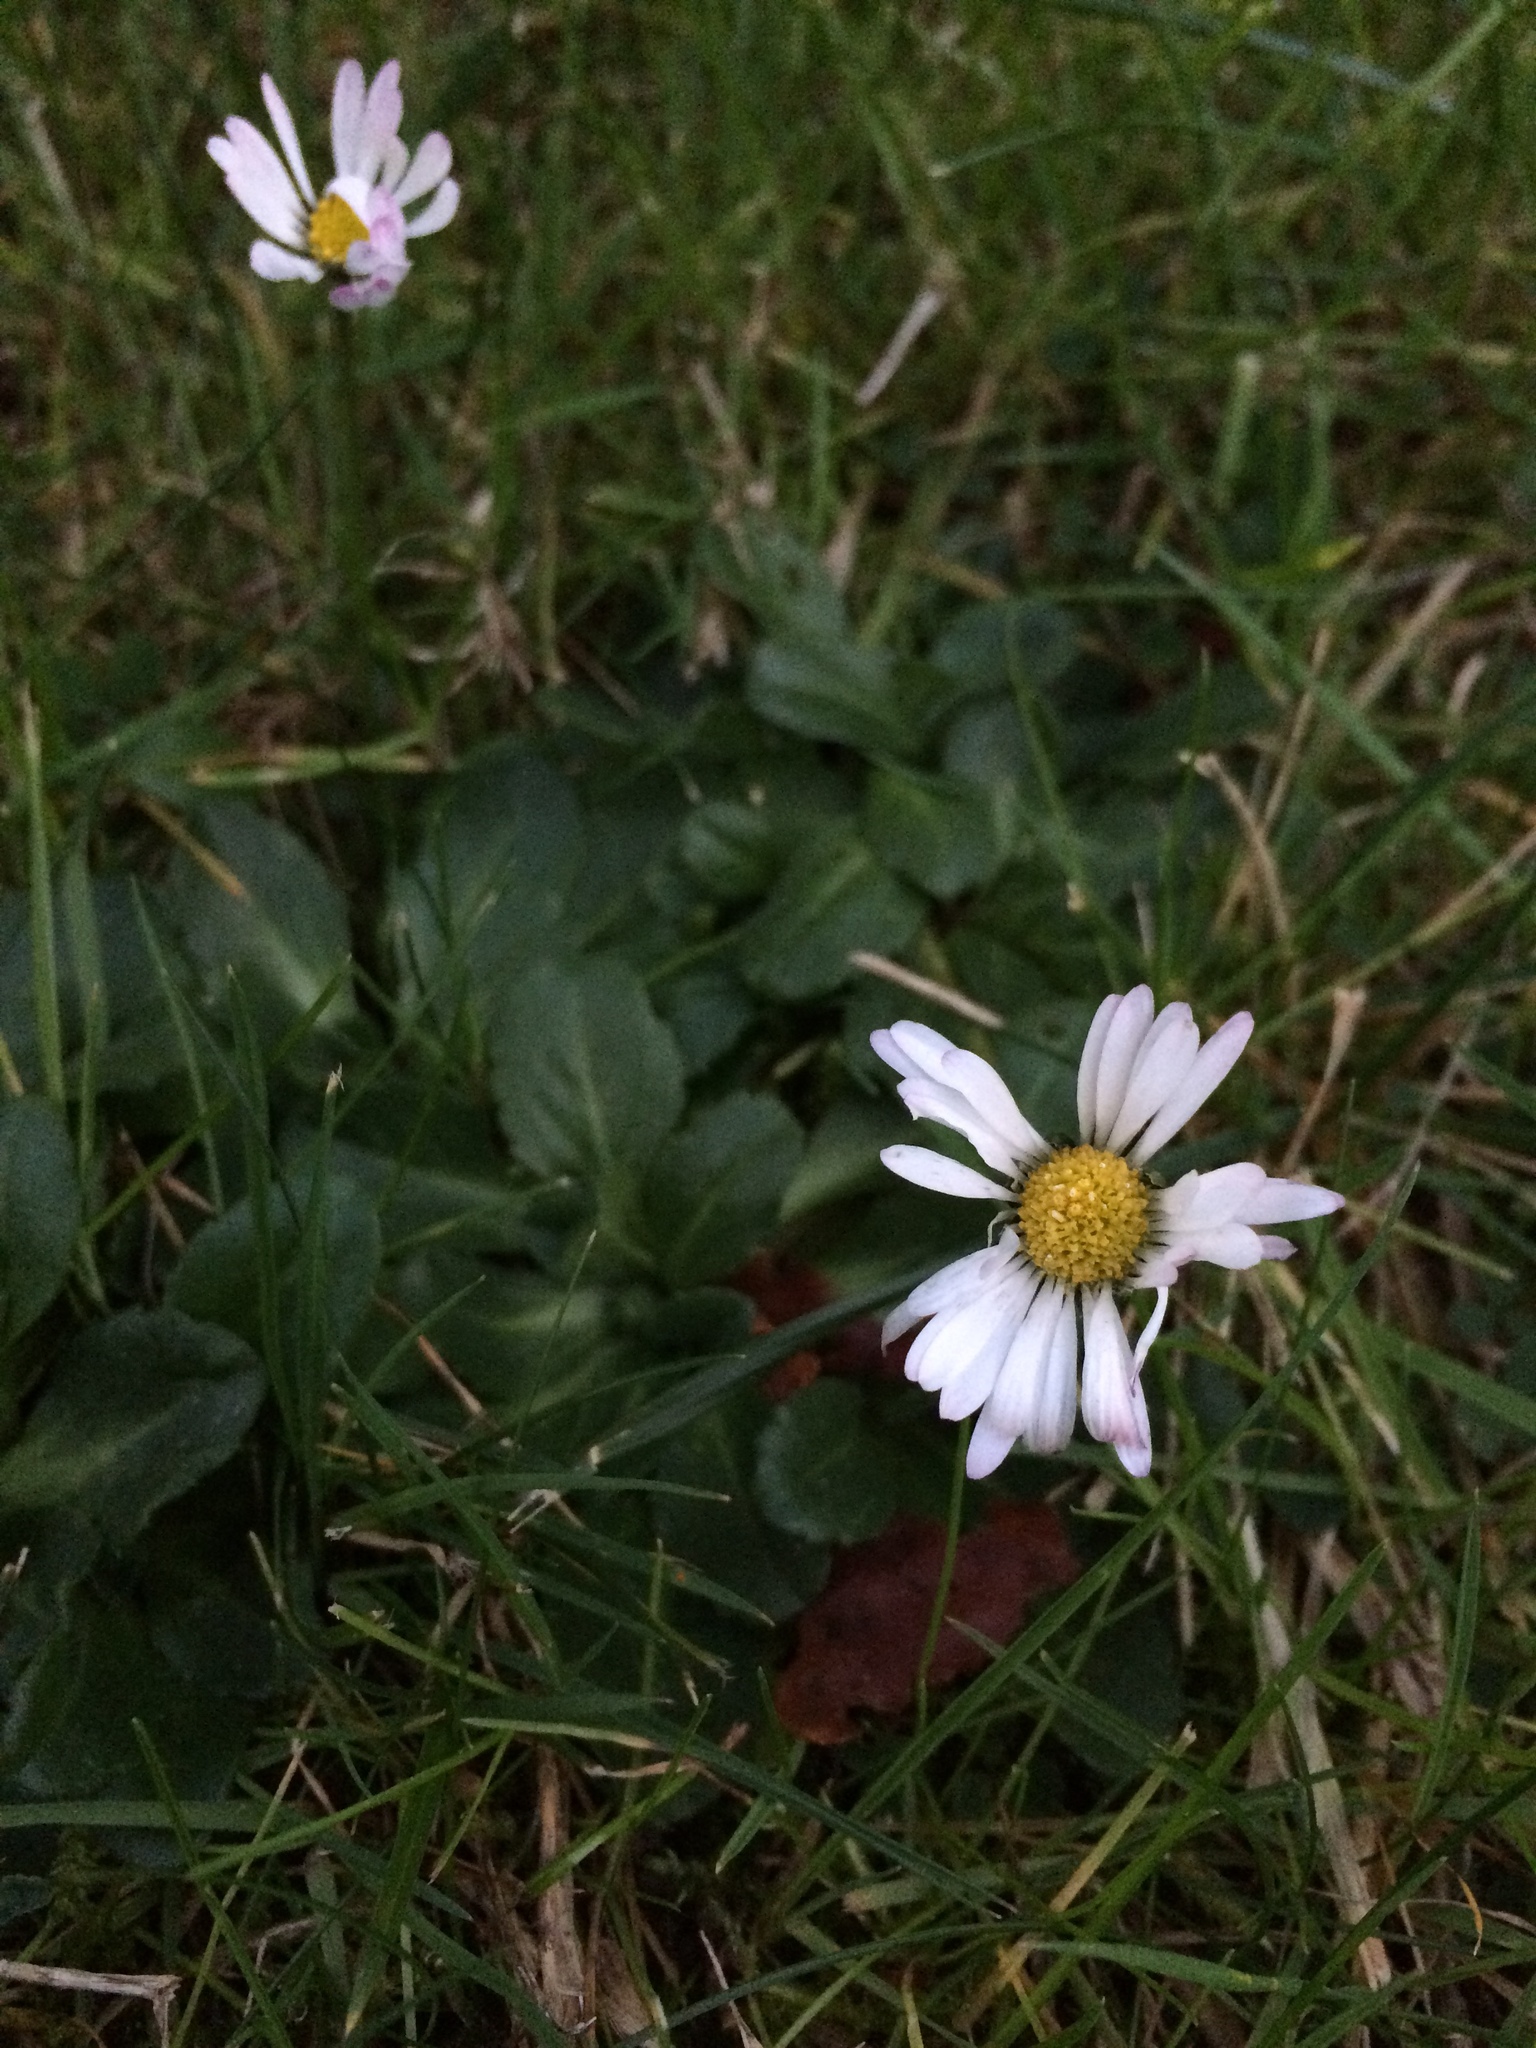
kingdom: Plantae
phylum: Tracheophyta
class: Magnoliopsida
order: Asterales
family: Asteraceae
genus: Bellis
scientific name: Bellis perennis
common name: Lawndaisy
